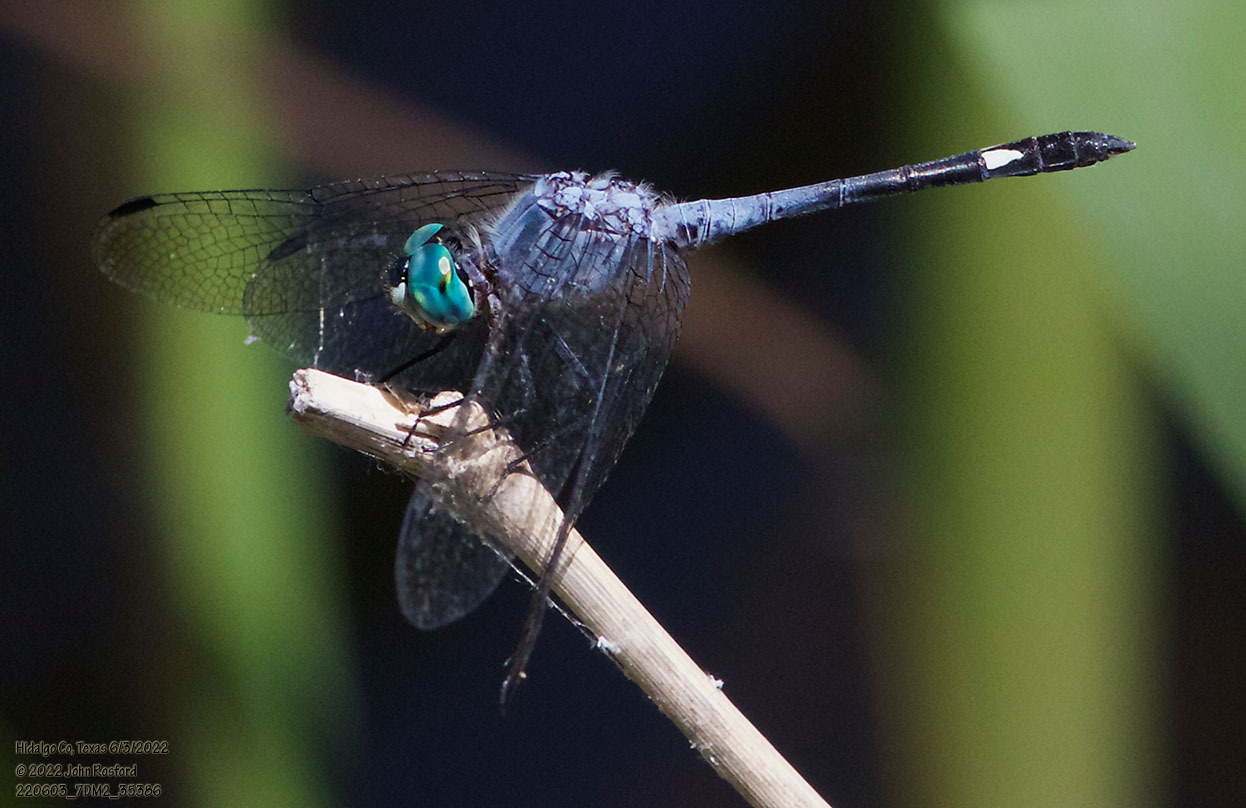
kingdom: Animalia
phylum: Arthropoda
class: Insecta
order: Odonata
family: Libellulidae
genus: Micrathyria
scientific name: Micrathyria aequalis
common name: Spot-tailed dasher
